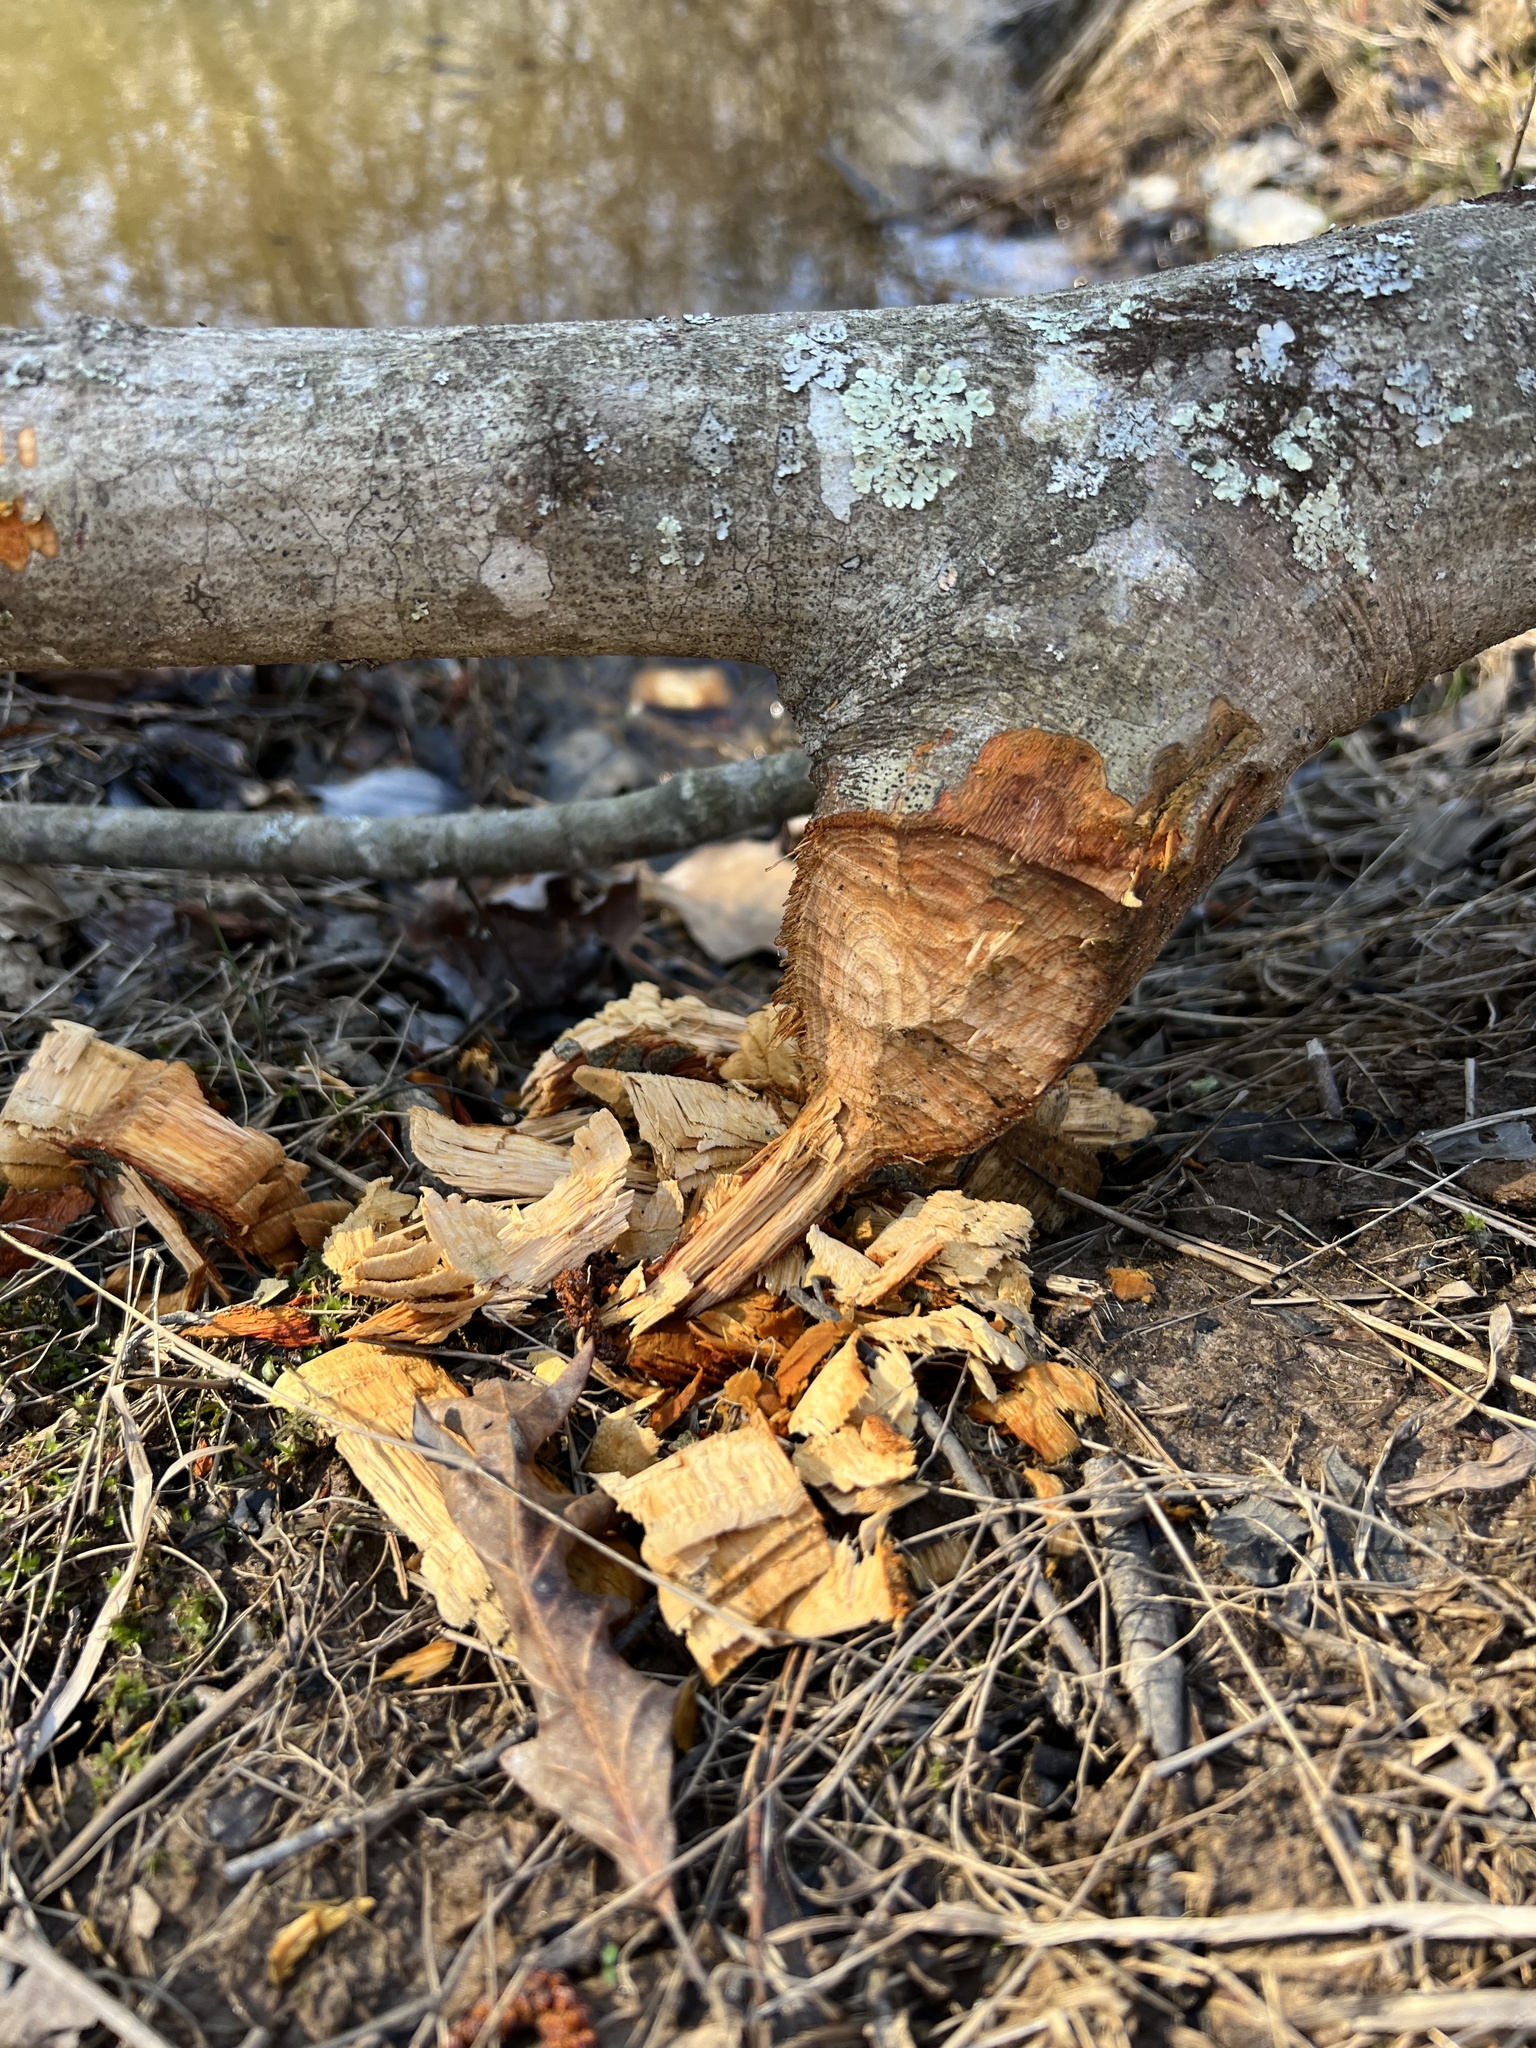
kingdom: Animalia
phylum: Chordata
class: Mammalia
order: Rodentia
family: Castoridae
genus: Castor
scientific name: Castor canadensis
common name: American beaver
